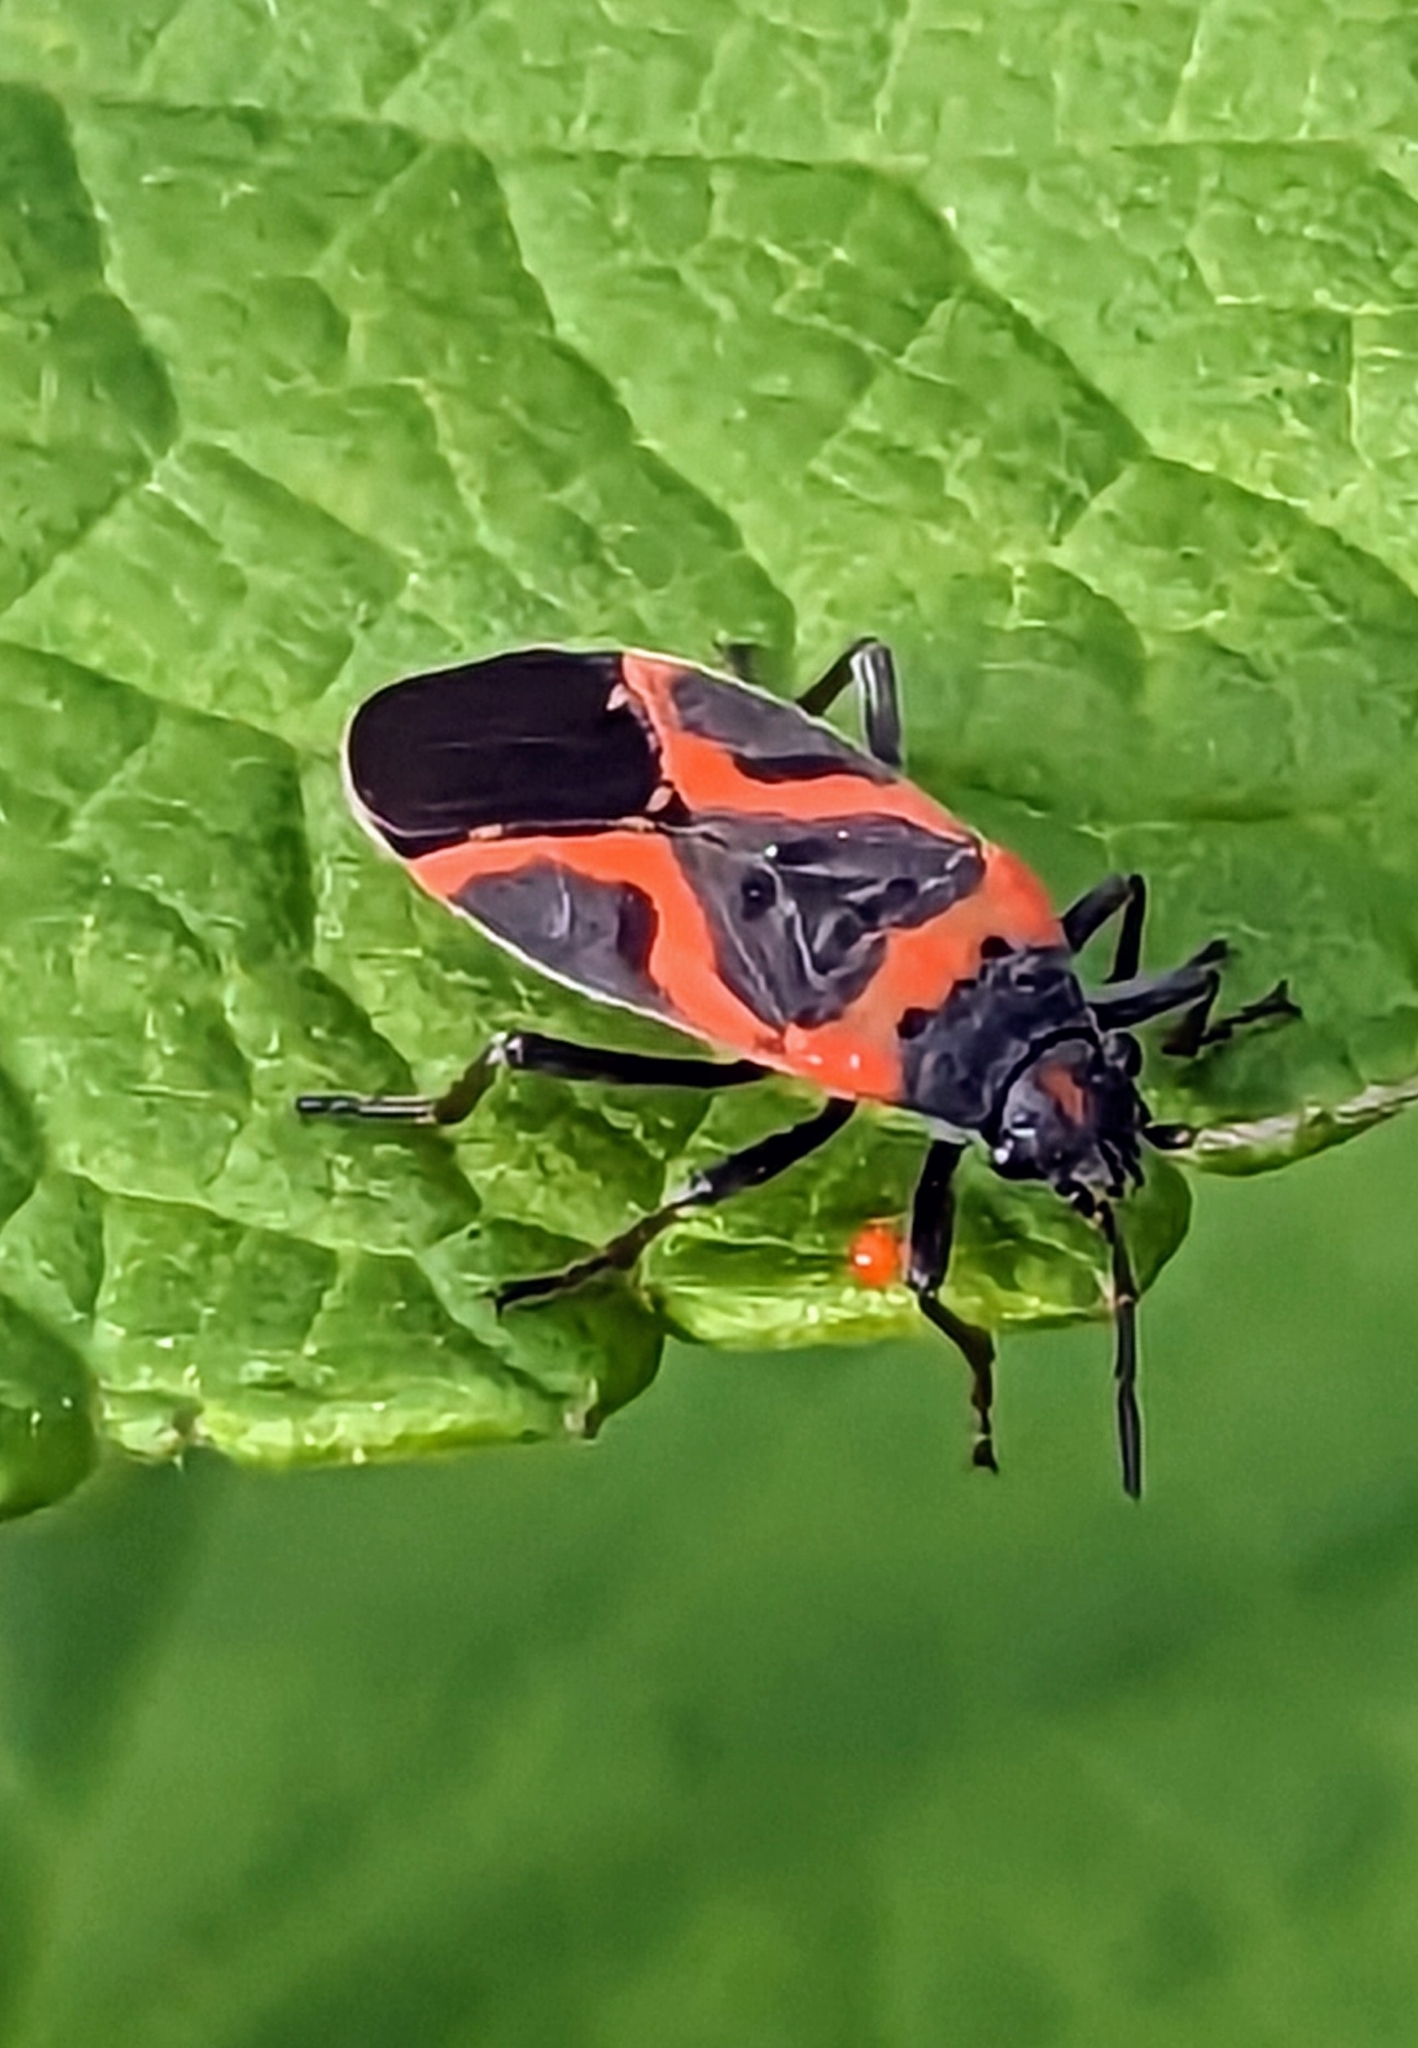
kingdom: Animalia
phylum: Arthropoda
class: Insecta
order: Hemiptera
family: Lygaeidae
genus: Lygaeus
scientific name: Lygaeus kalmii
